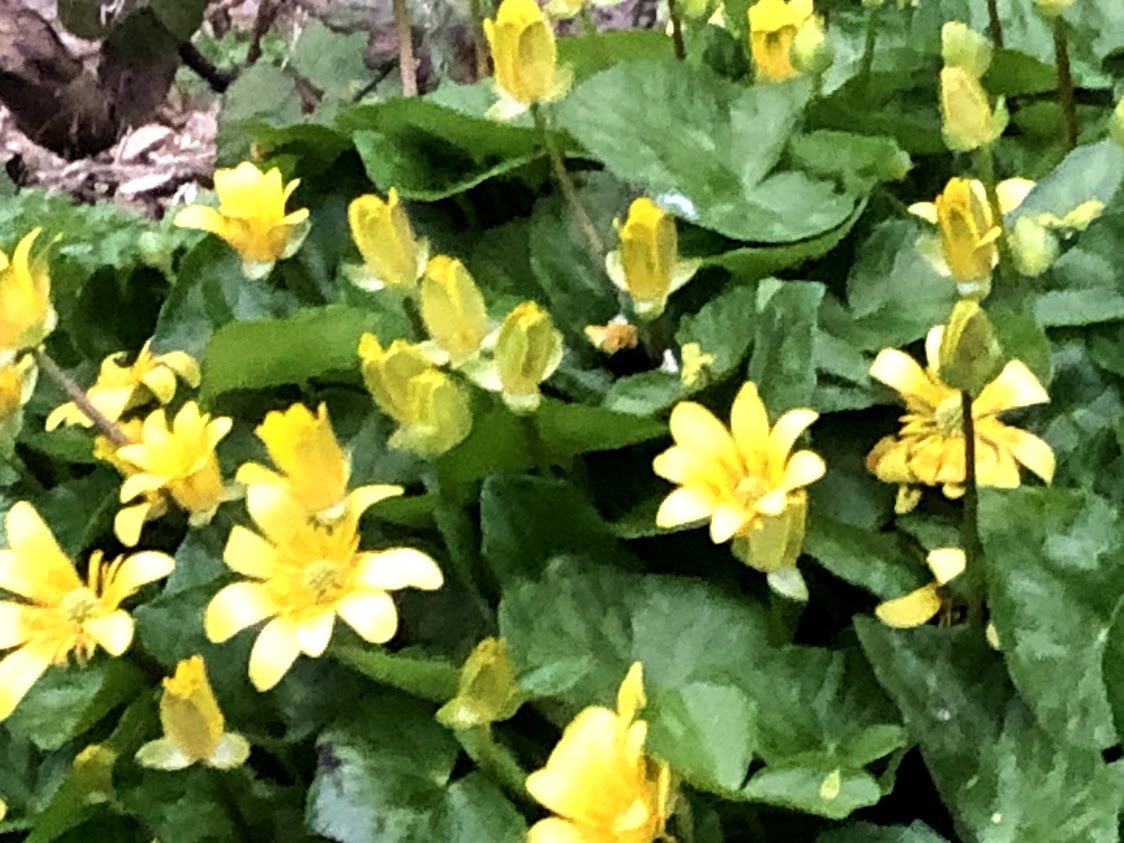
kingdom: Plantae
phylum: Tracheophyta
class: Magnoliopsida
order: Ranunculales
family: Ranunculaceae
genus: Ficaria
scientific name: Ficaria verna
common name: Lesser celandine
